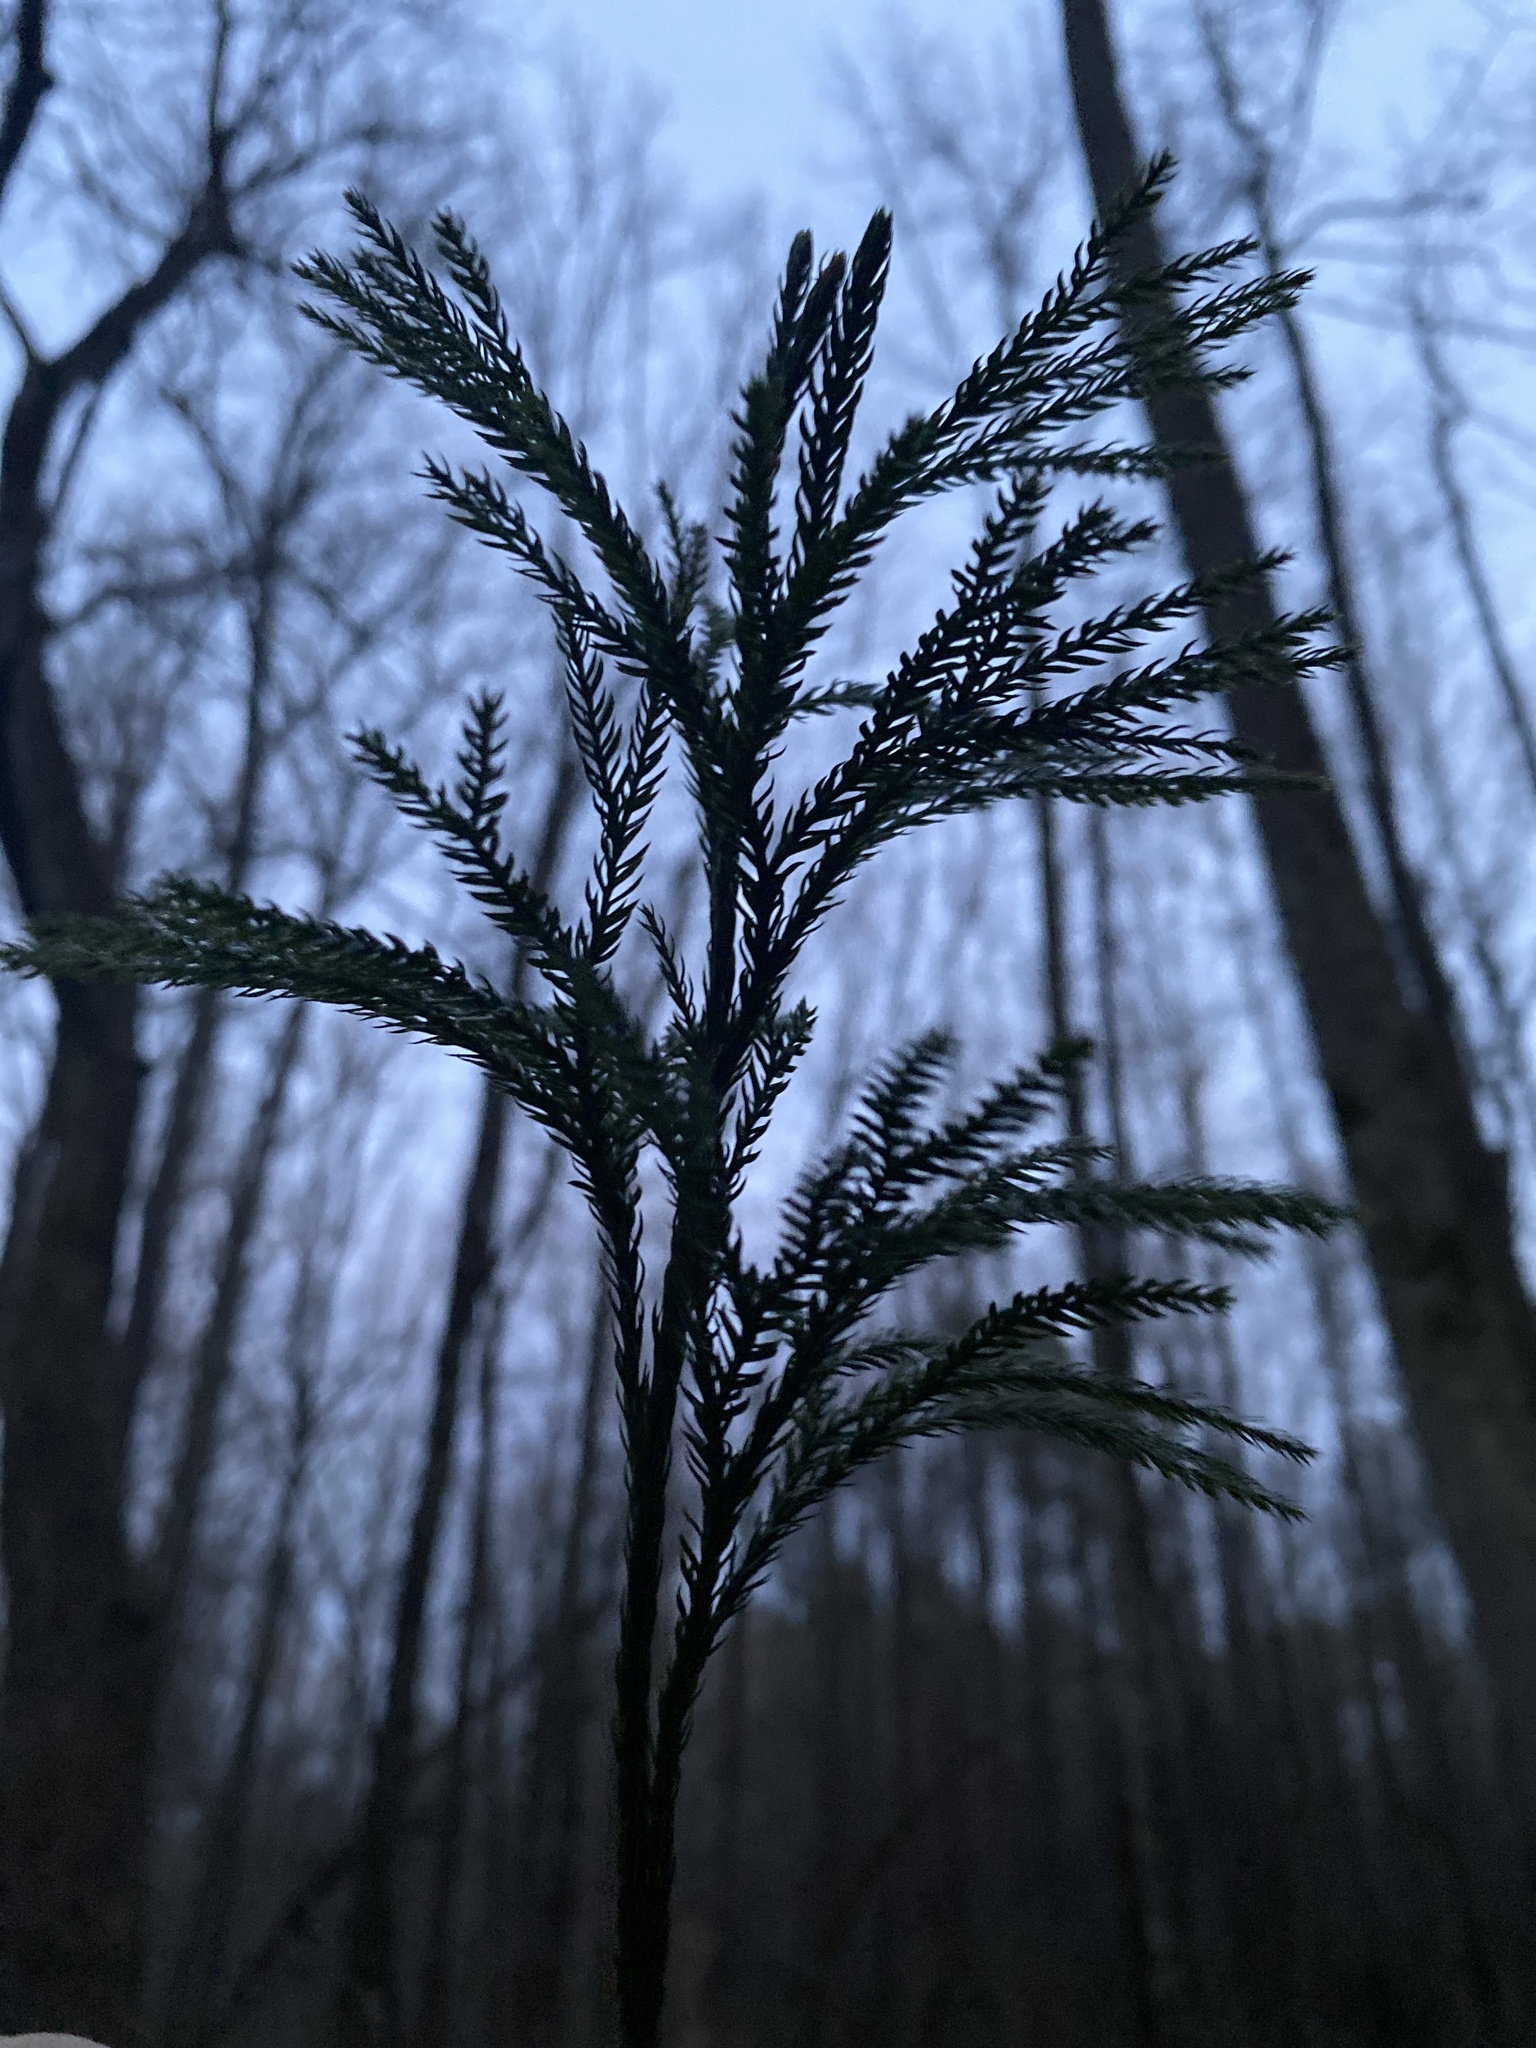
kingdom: Plantae
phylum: Tracheophyta
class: Lycopodiopsida
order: Lycopodiales
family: Lycopodiaceae
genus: Dendrolycopodium
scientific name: Dendrolycopodium obscurum
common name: Common ground-pine
